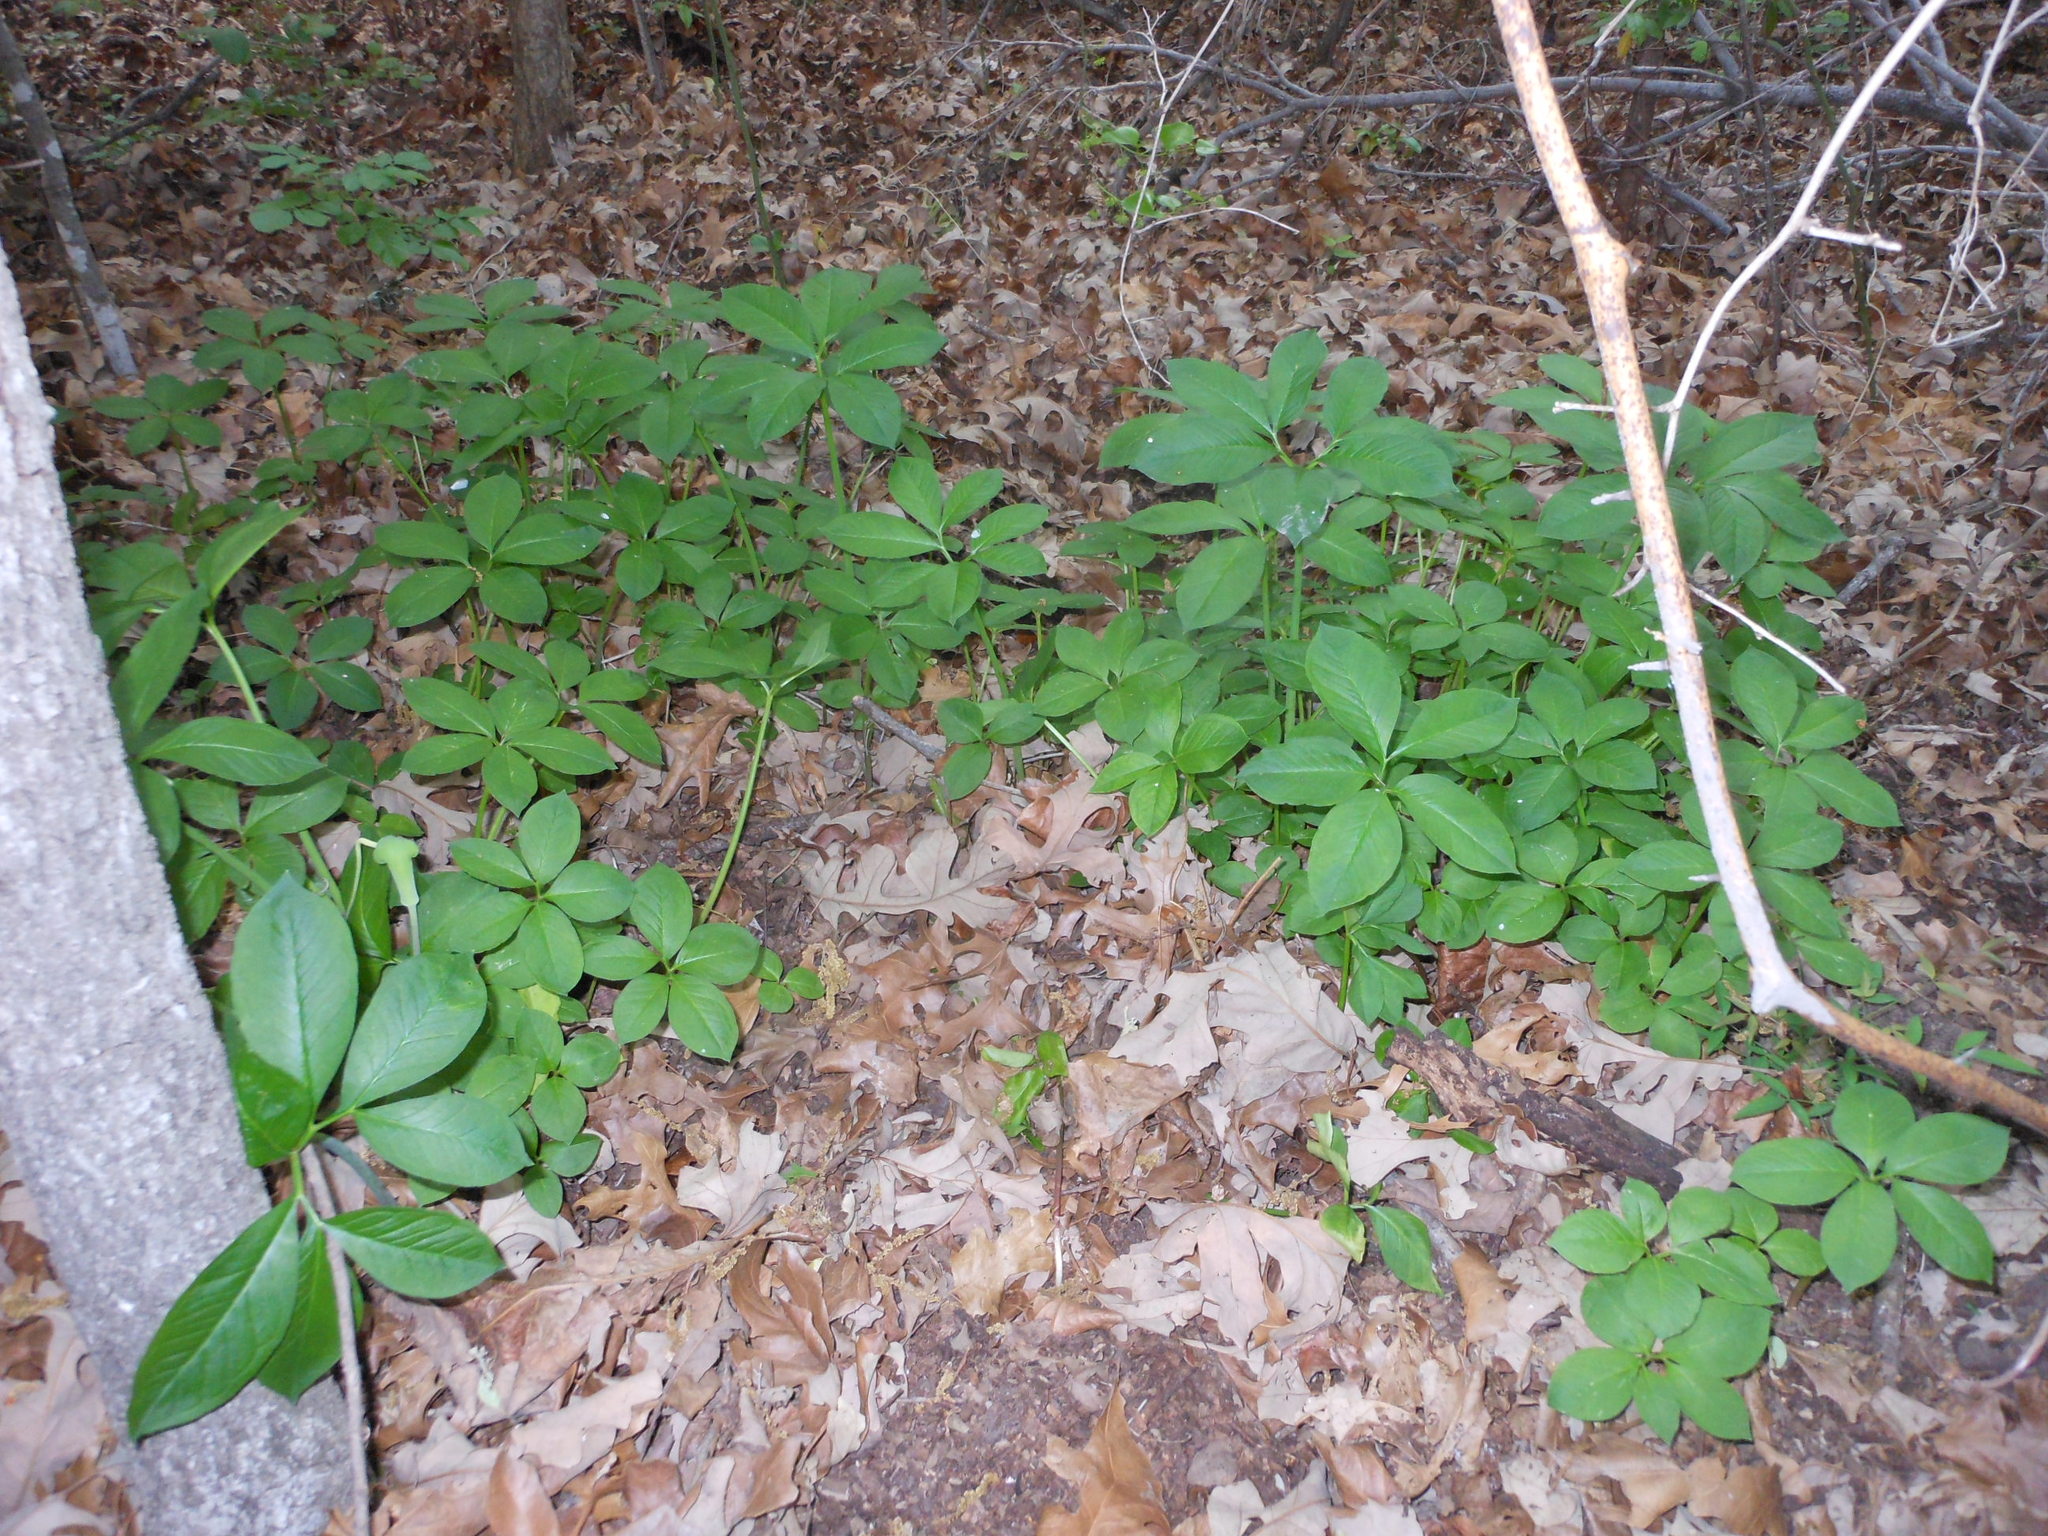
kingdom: Plantae
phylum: Tracheophyta
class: Liliopsida
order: Alismatales
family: Araceae
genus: Arisaema
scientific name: Arisaema dracontium
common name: Dragon-arum
